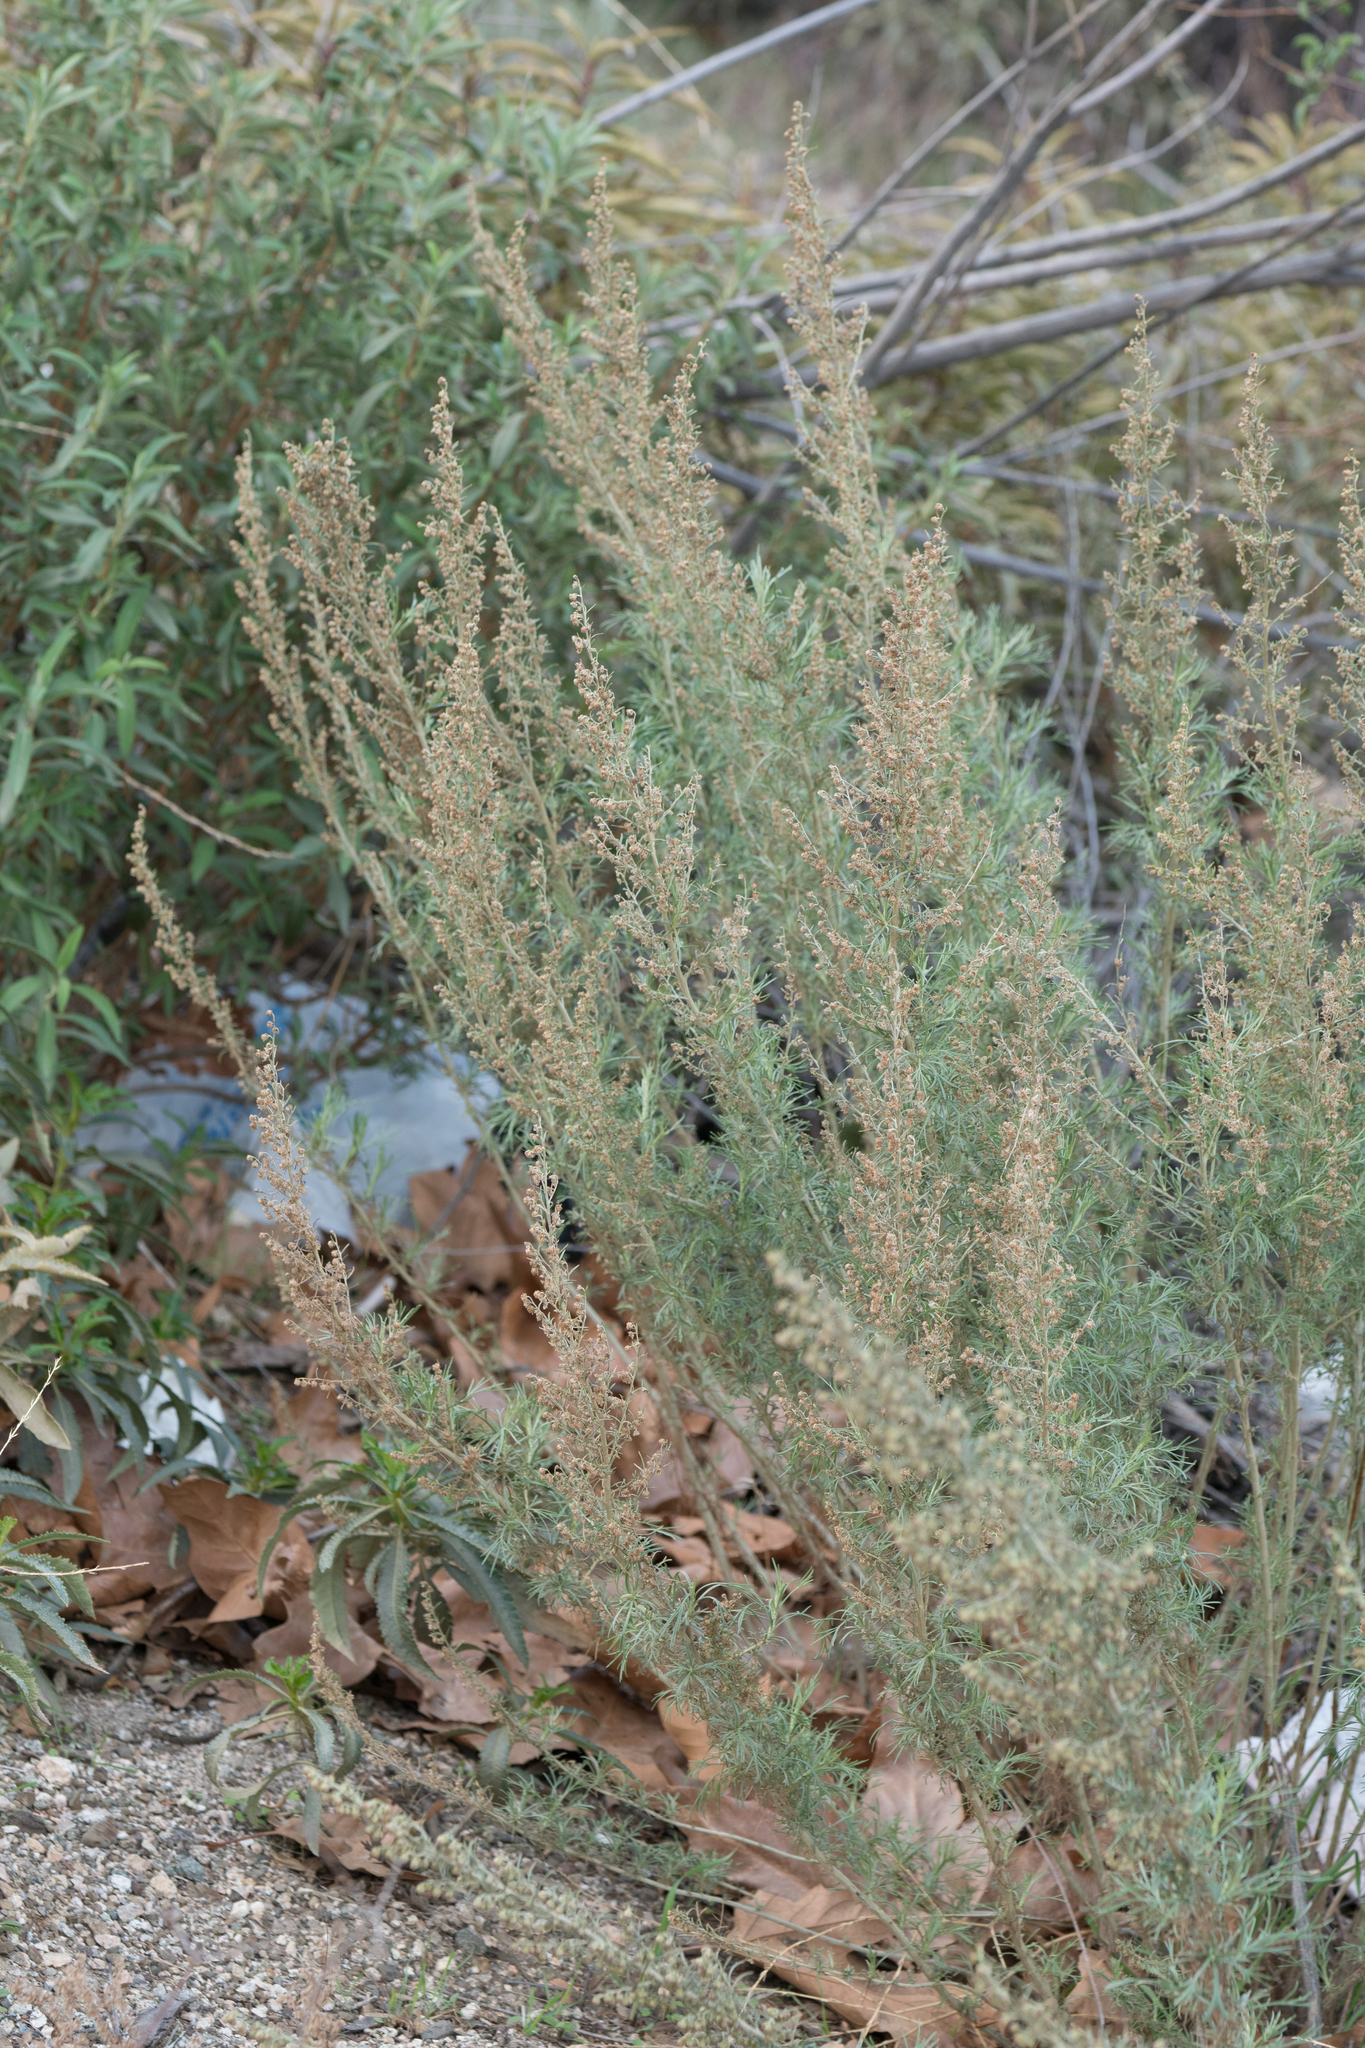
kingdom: Plantae
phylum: Tracheophyta
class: Magnoliopsida
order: Asterales
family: Asteraceae
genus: Artemisia
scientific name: Artemisia californica
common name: California sagebrush
